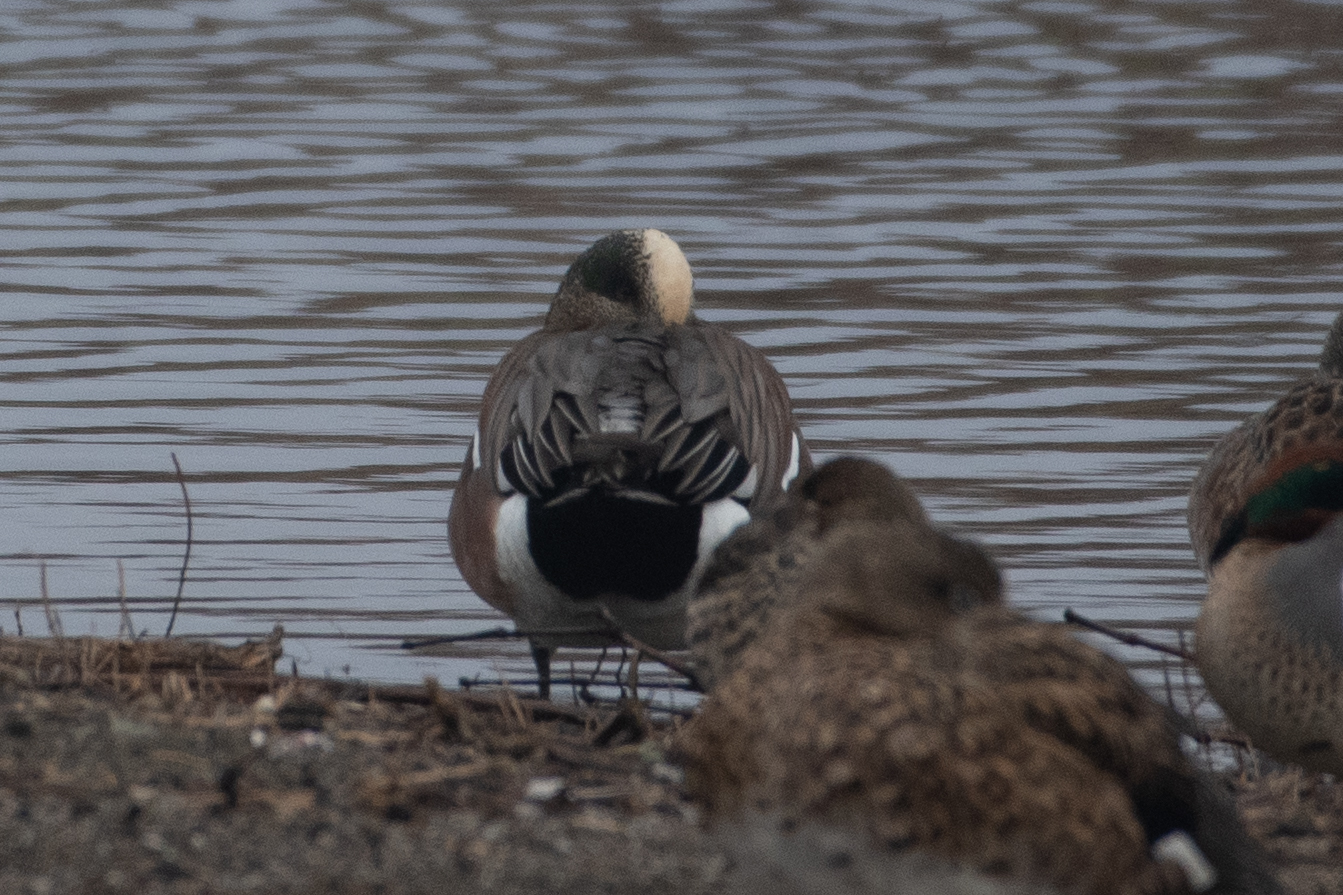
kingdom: Animalia
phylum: Chordata
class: Aves
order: Anseriformes
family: Anatidae
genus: Mareca
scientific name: Mareca americana
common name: American wigeon
